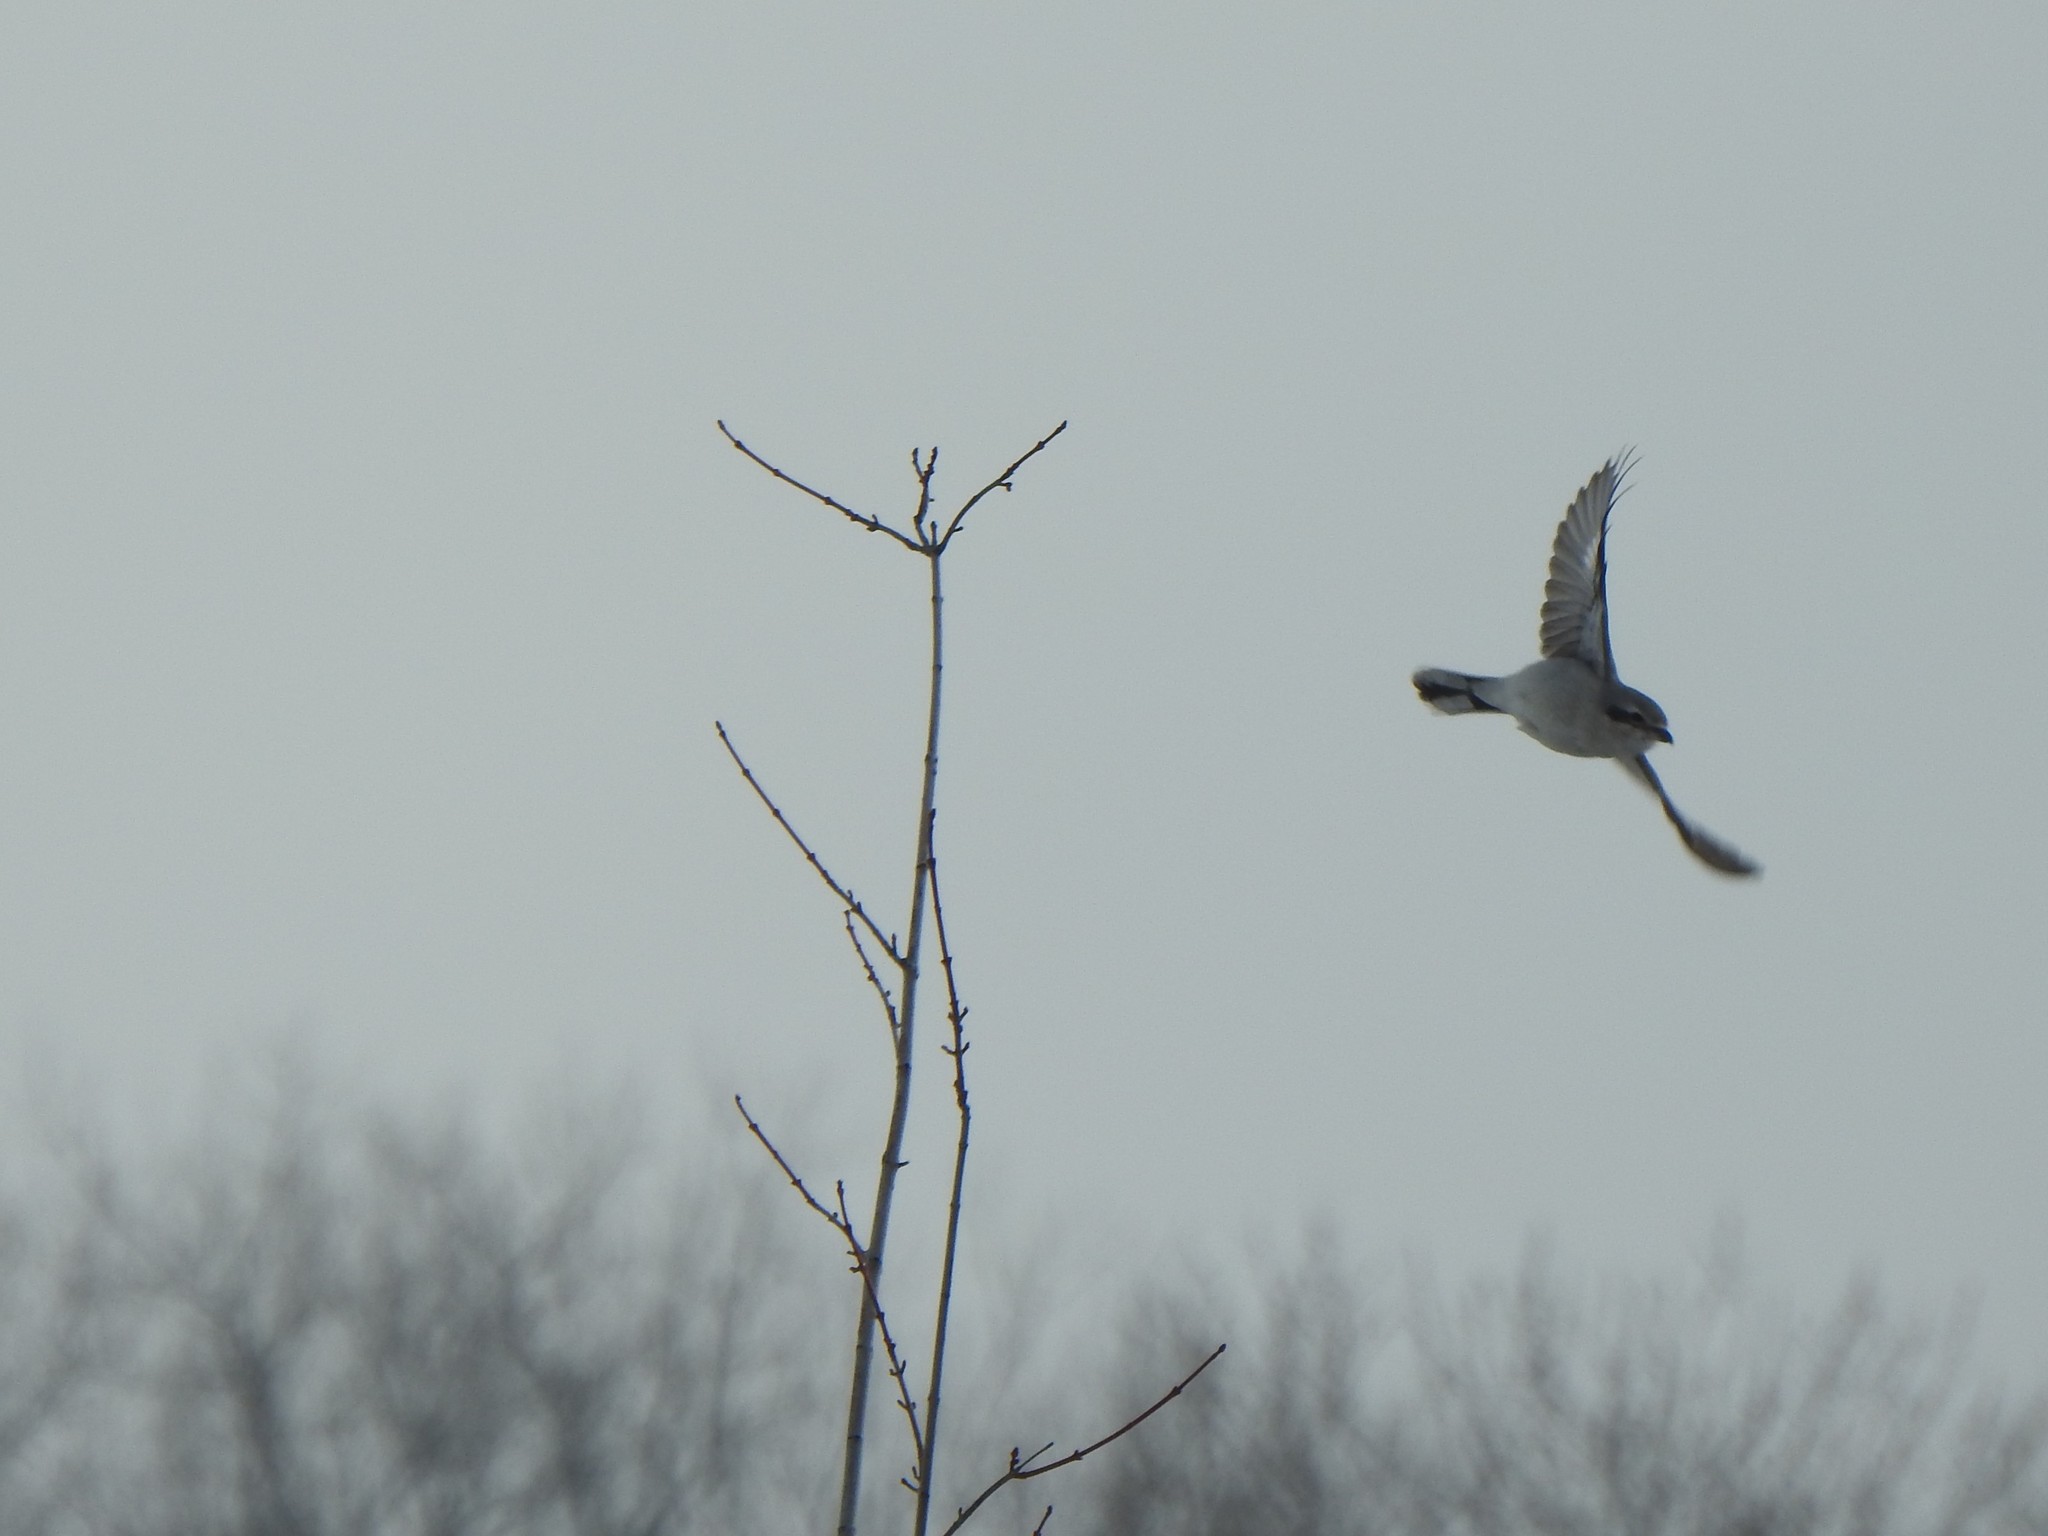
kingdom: Animalia
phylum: Chordata
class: Aves
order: Passeriformes
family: Laniidae
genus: Lanius
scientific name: Lanius borealis
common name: Northern shrike
